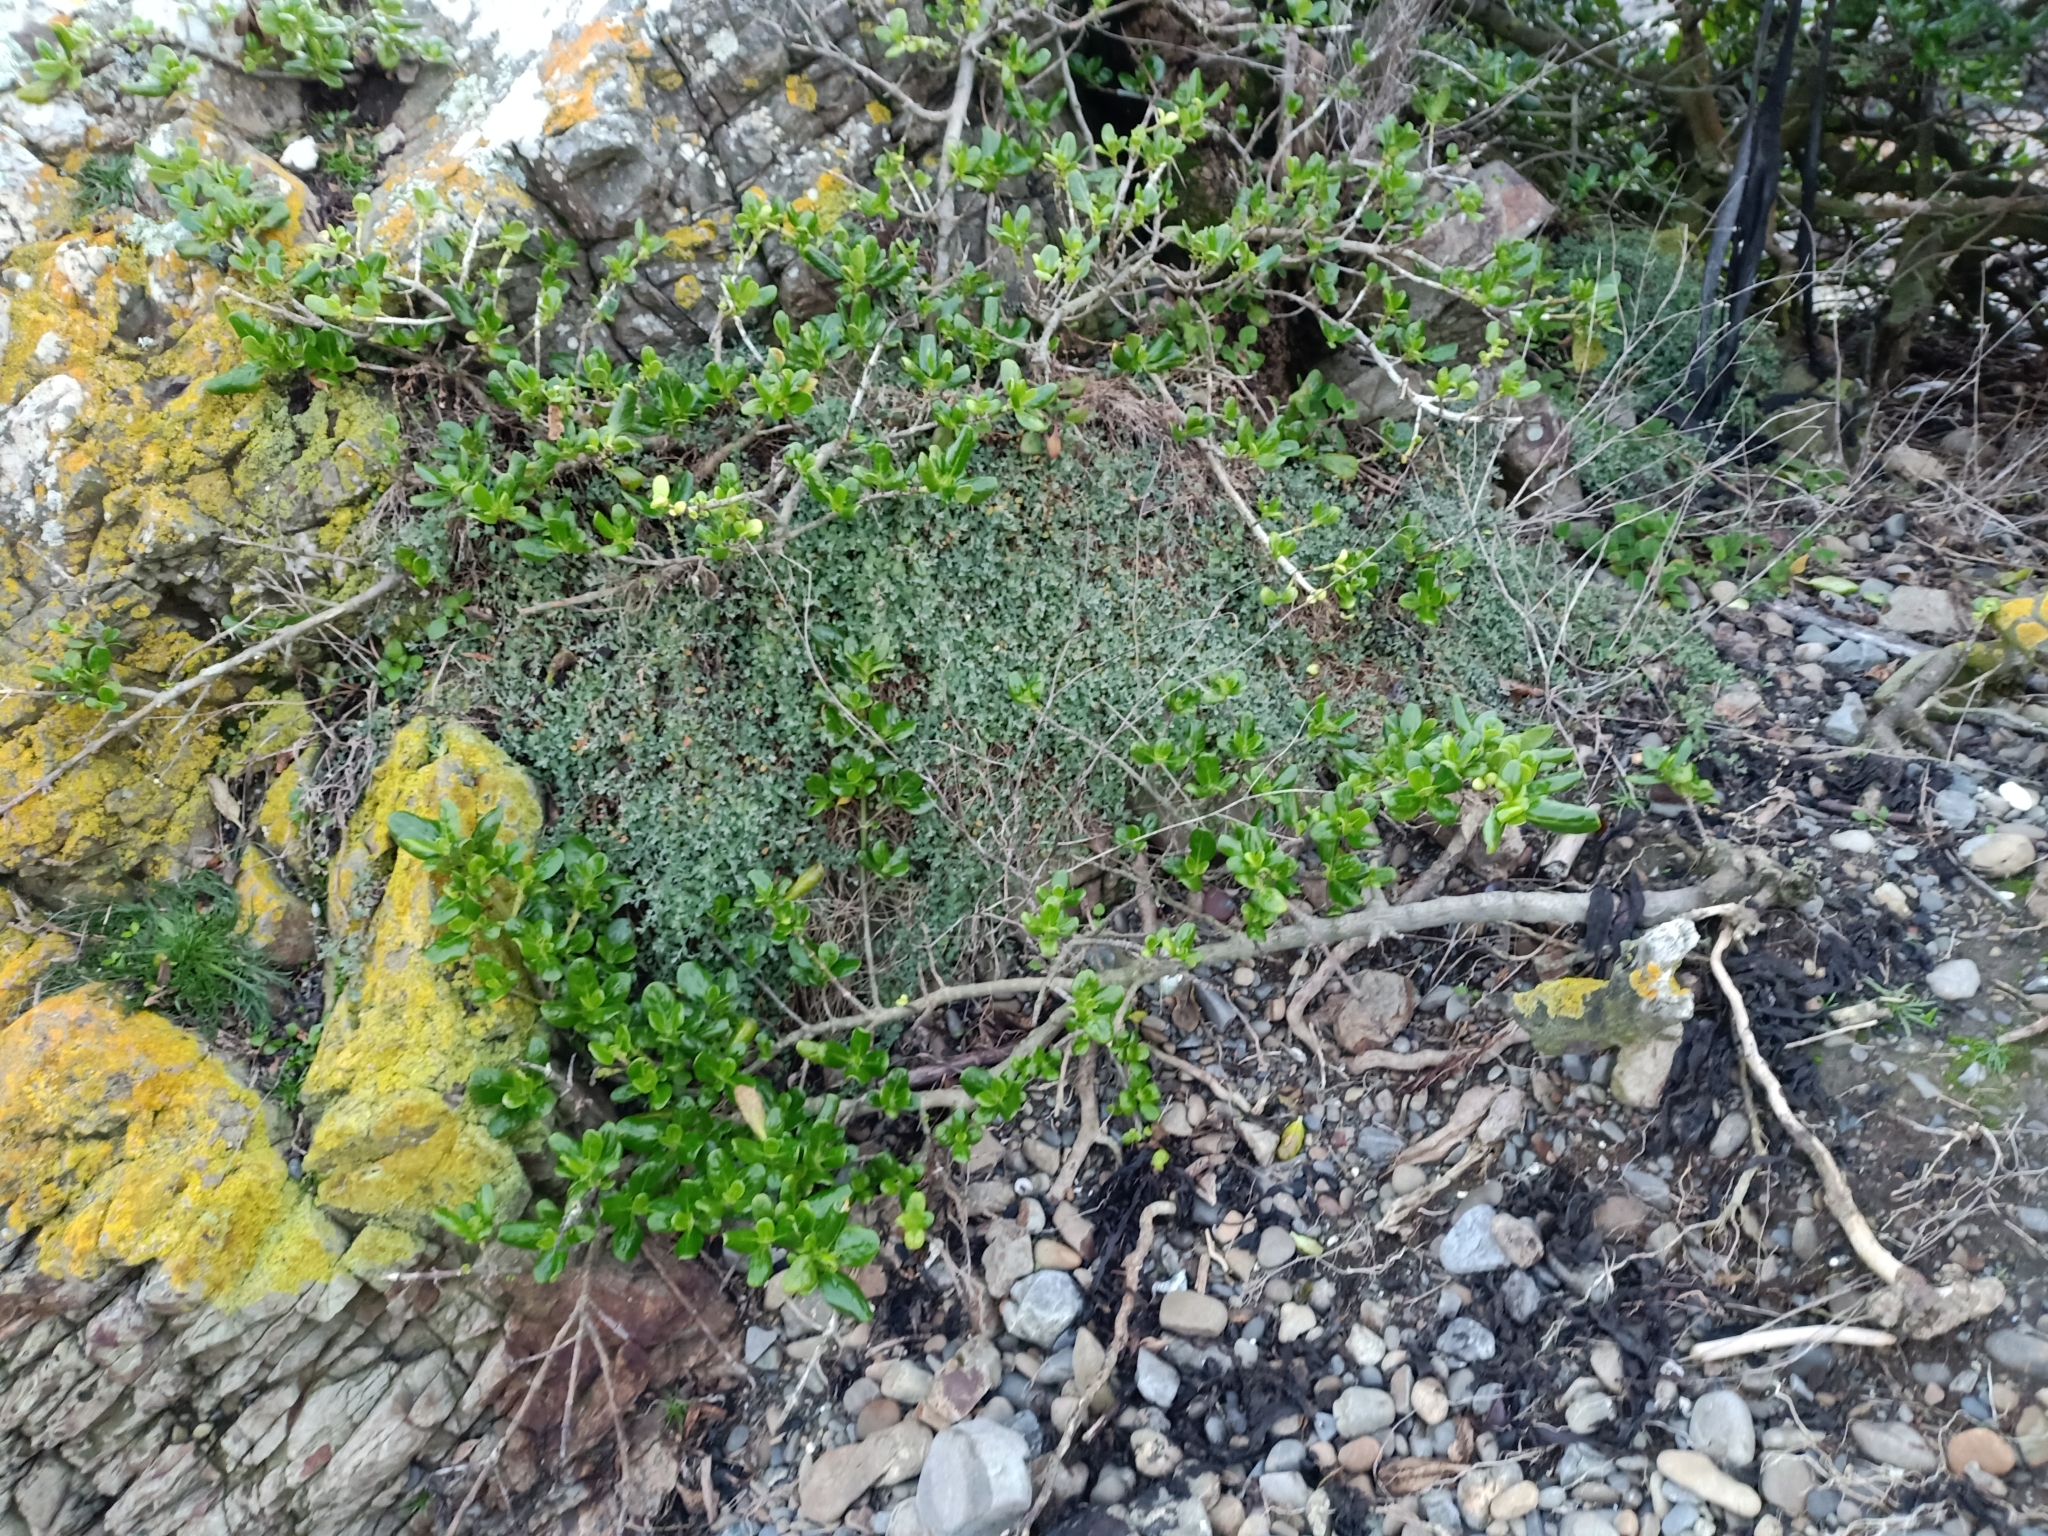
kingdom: Plantae
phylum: Tracheophyta
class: Magnoliopsida
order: Caryophyllales
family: Amaranthaceae
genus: Chenopodium
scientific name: Chenopodium triandrum
